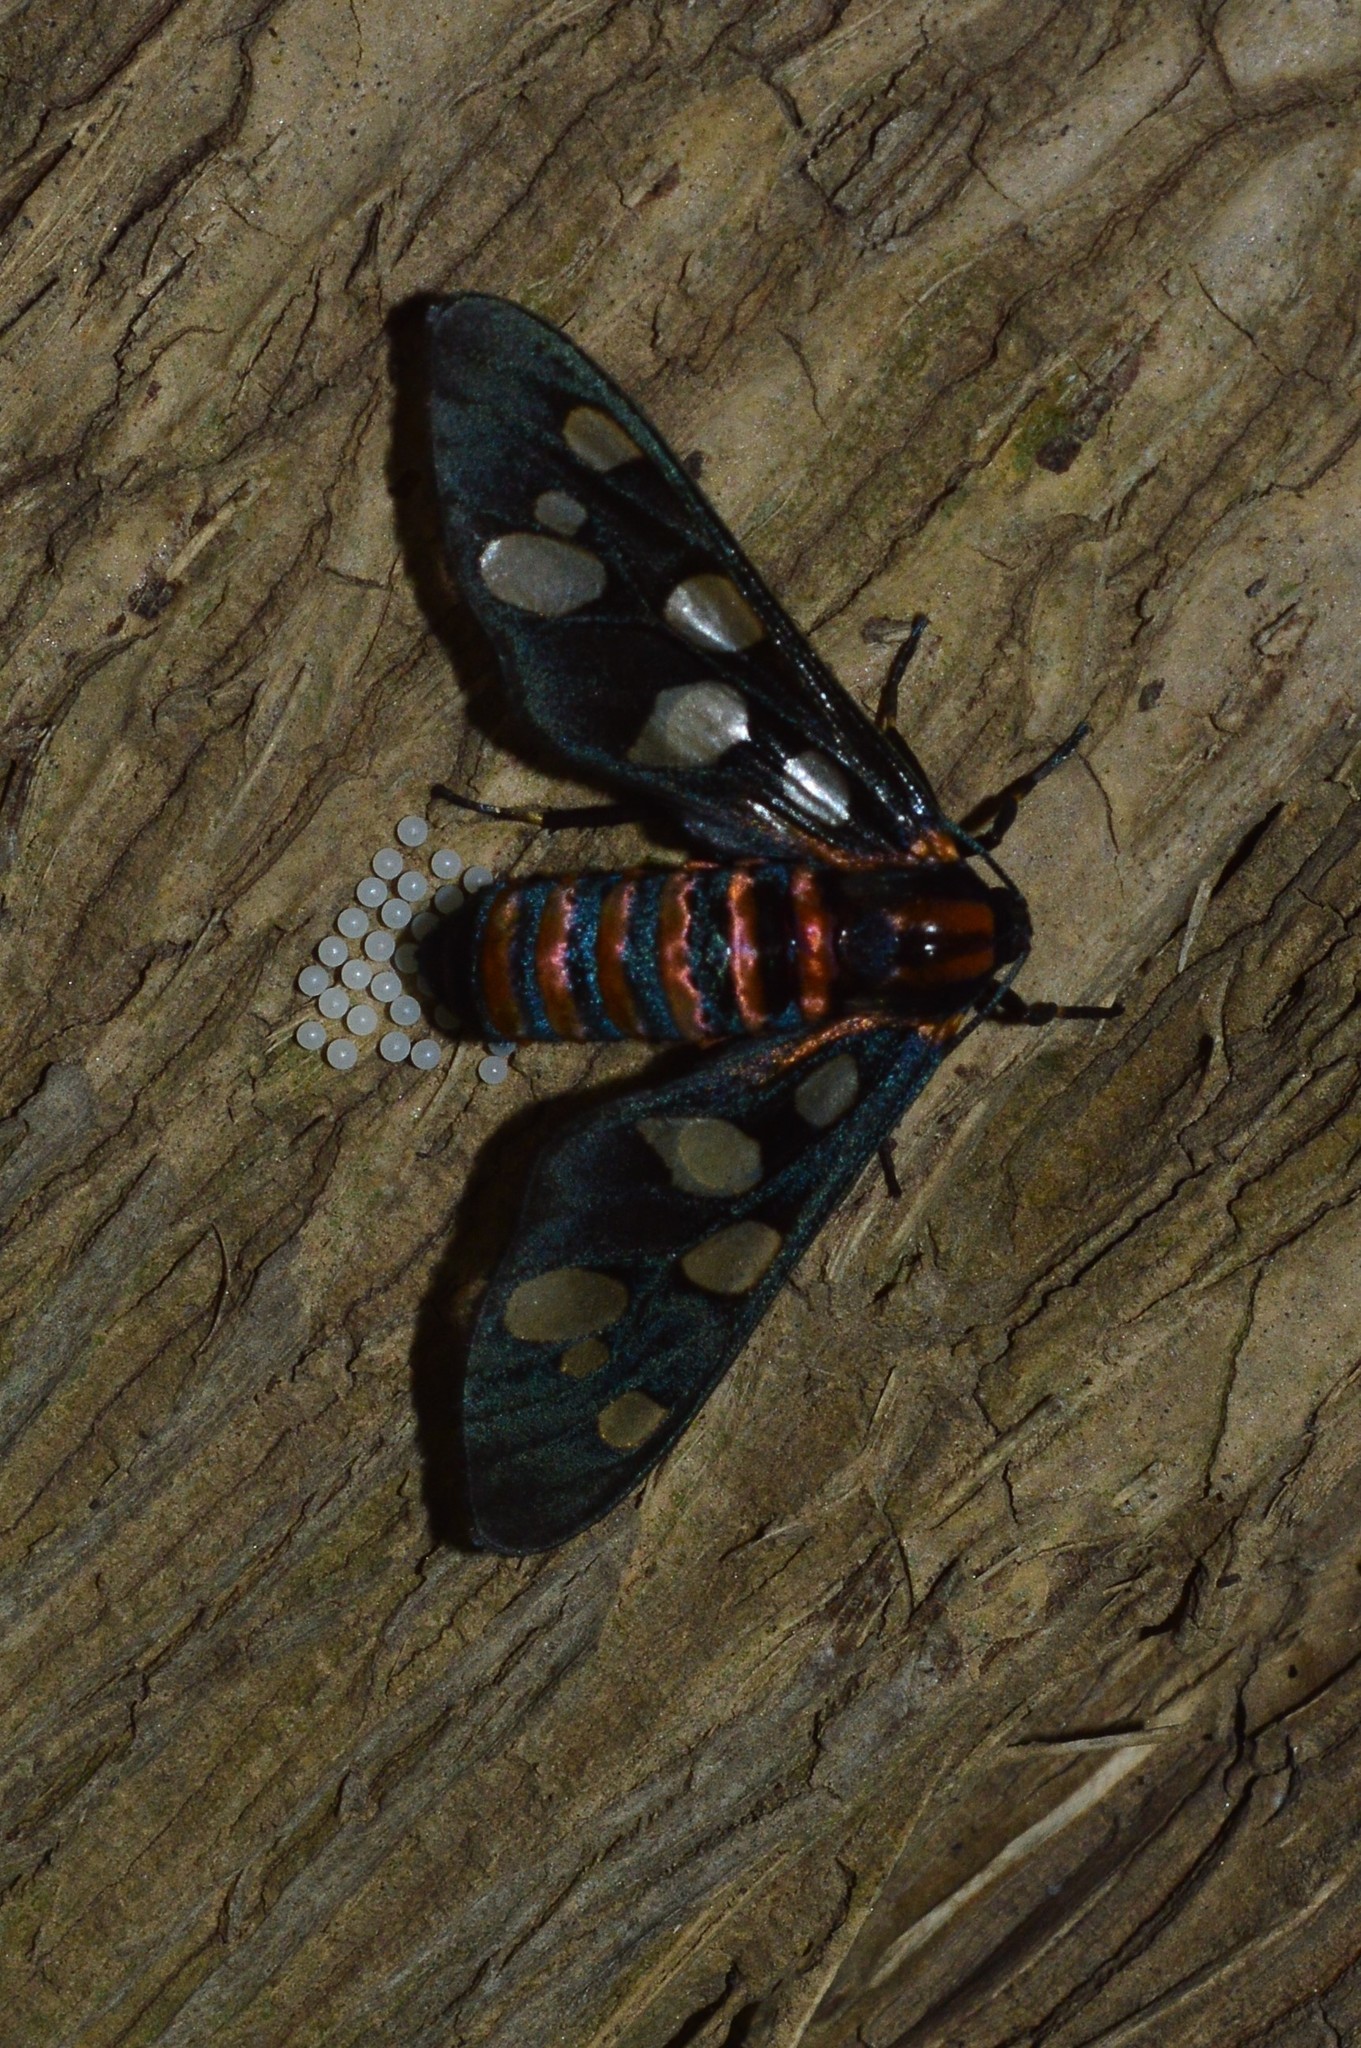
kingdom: Animalia
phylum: Arthropoda
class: Insecta
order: Lepidoptera
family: Erebidae
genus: Amata
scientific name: Amata passalis
